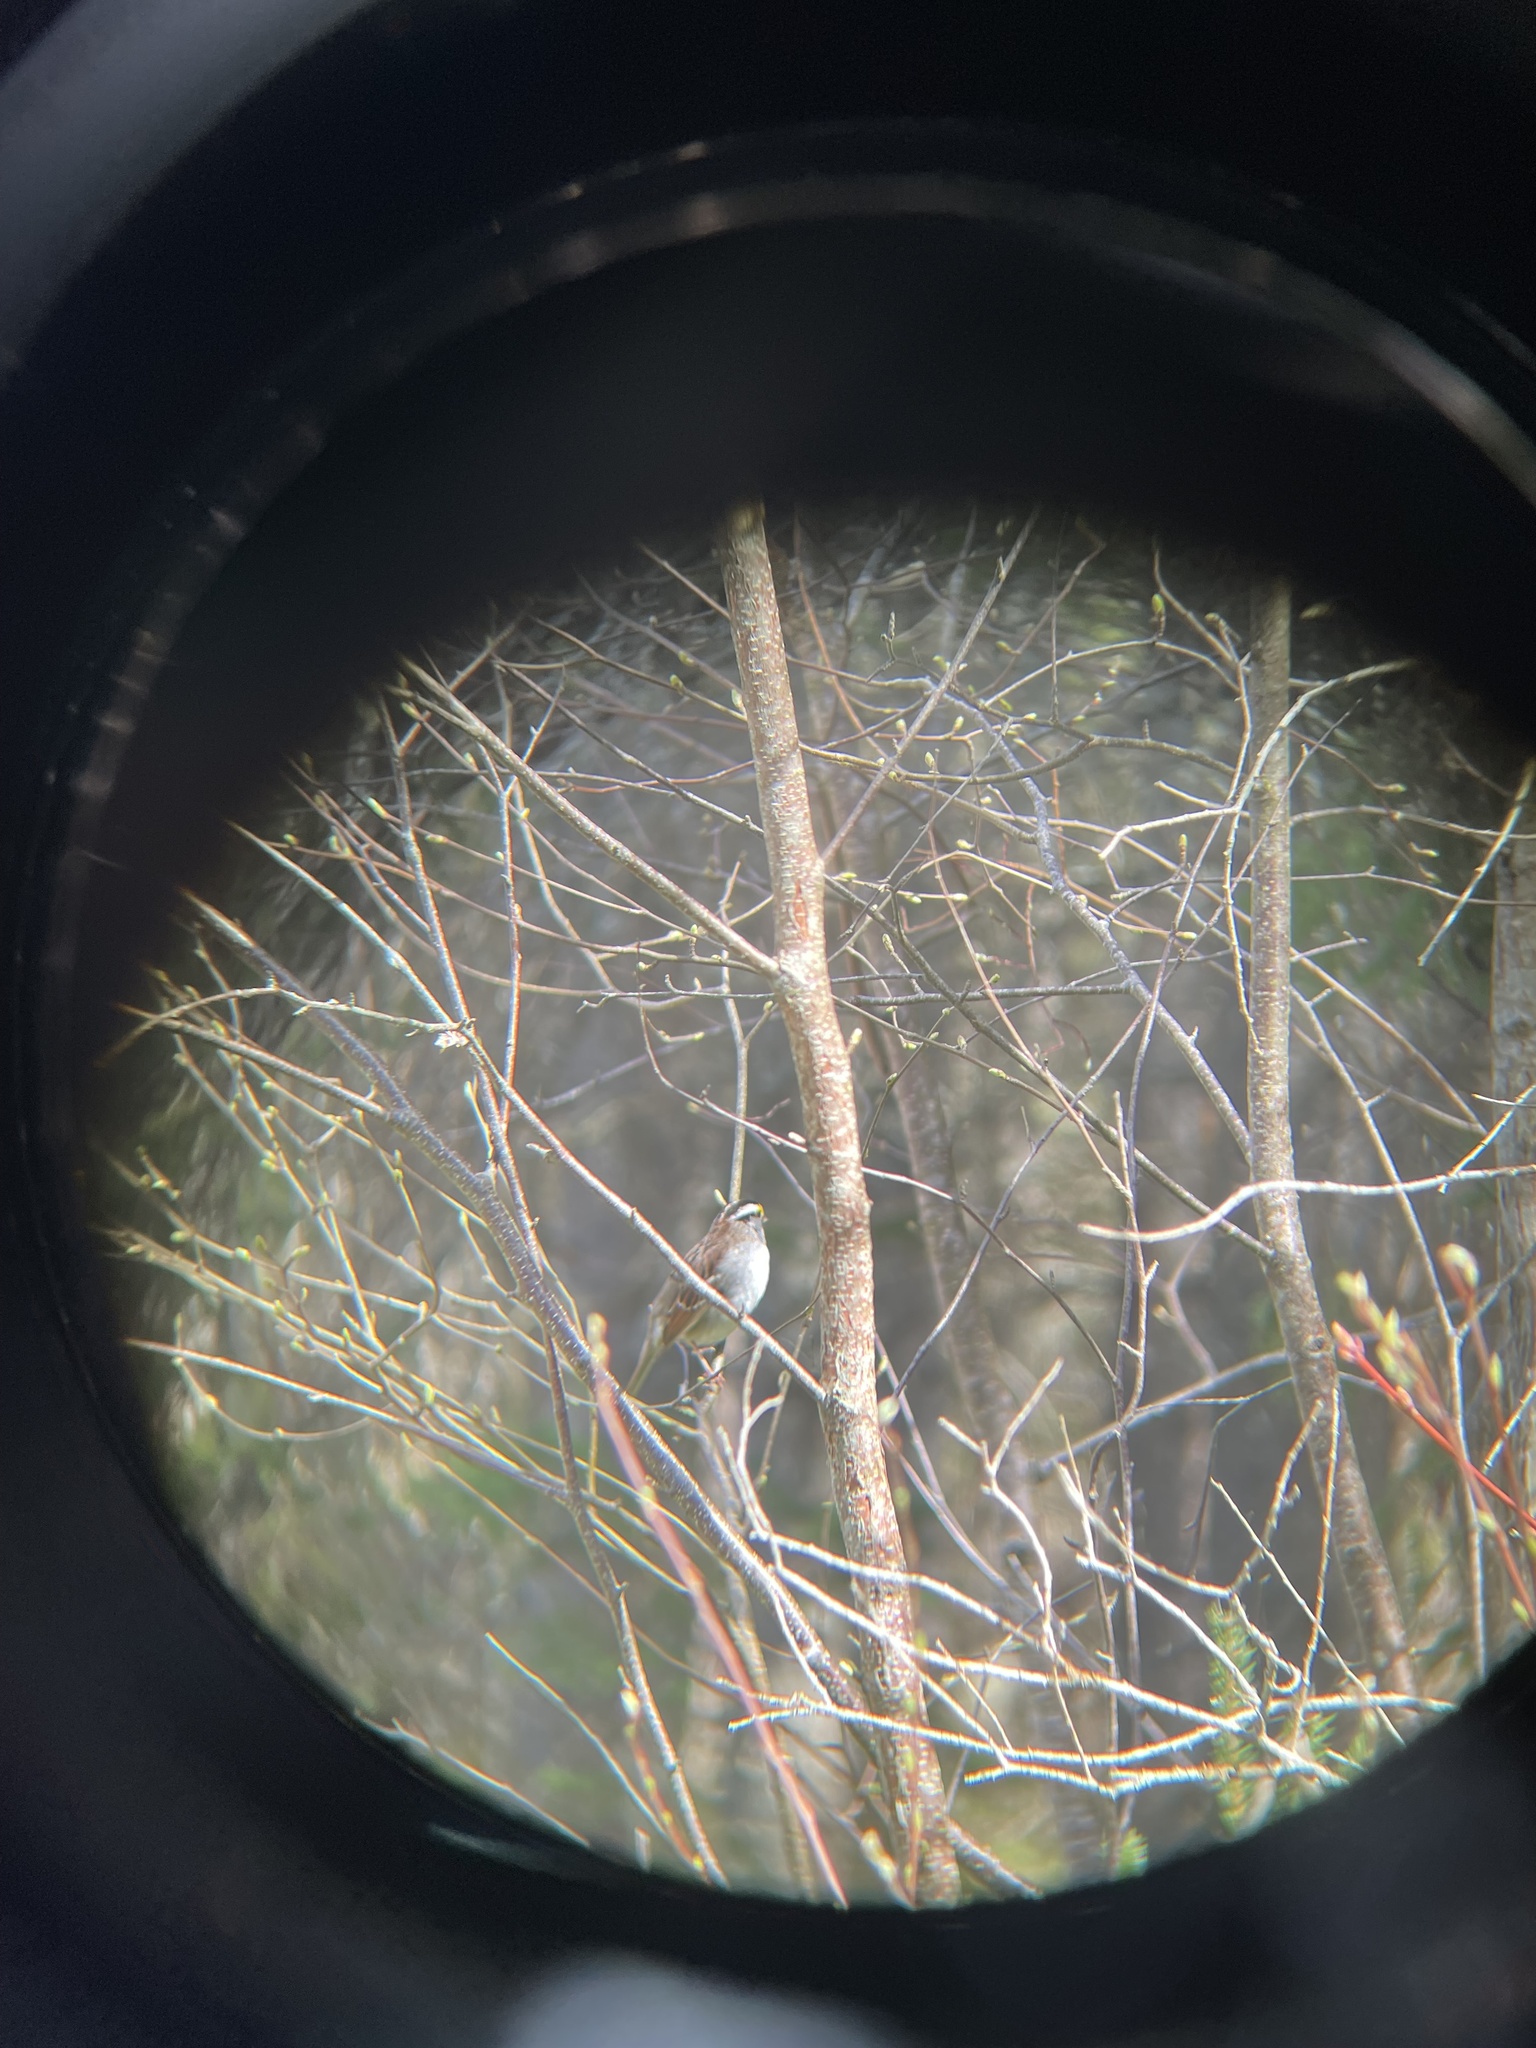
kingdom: Animalia
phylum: Chordata
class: Aves
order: Passeriformes
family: Passerellidae
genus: Zonotrichia
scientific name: Zonotrichia albicollis
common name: White-throated sparrow
